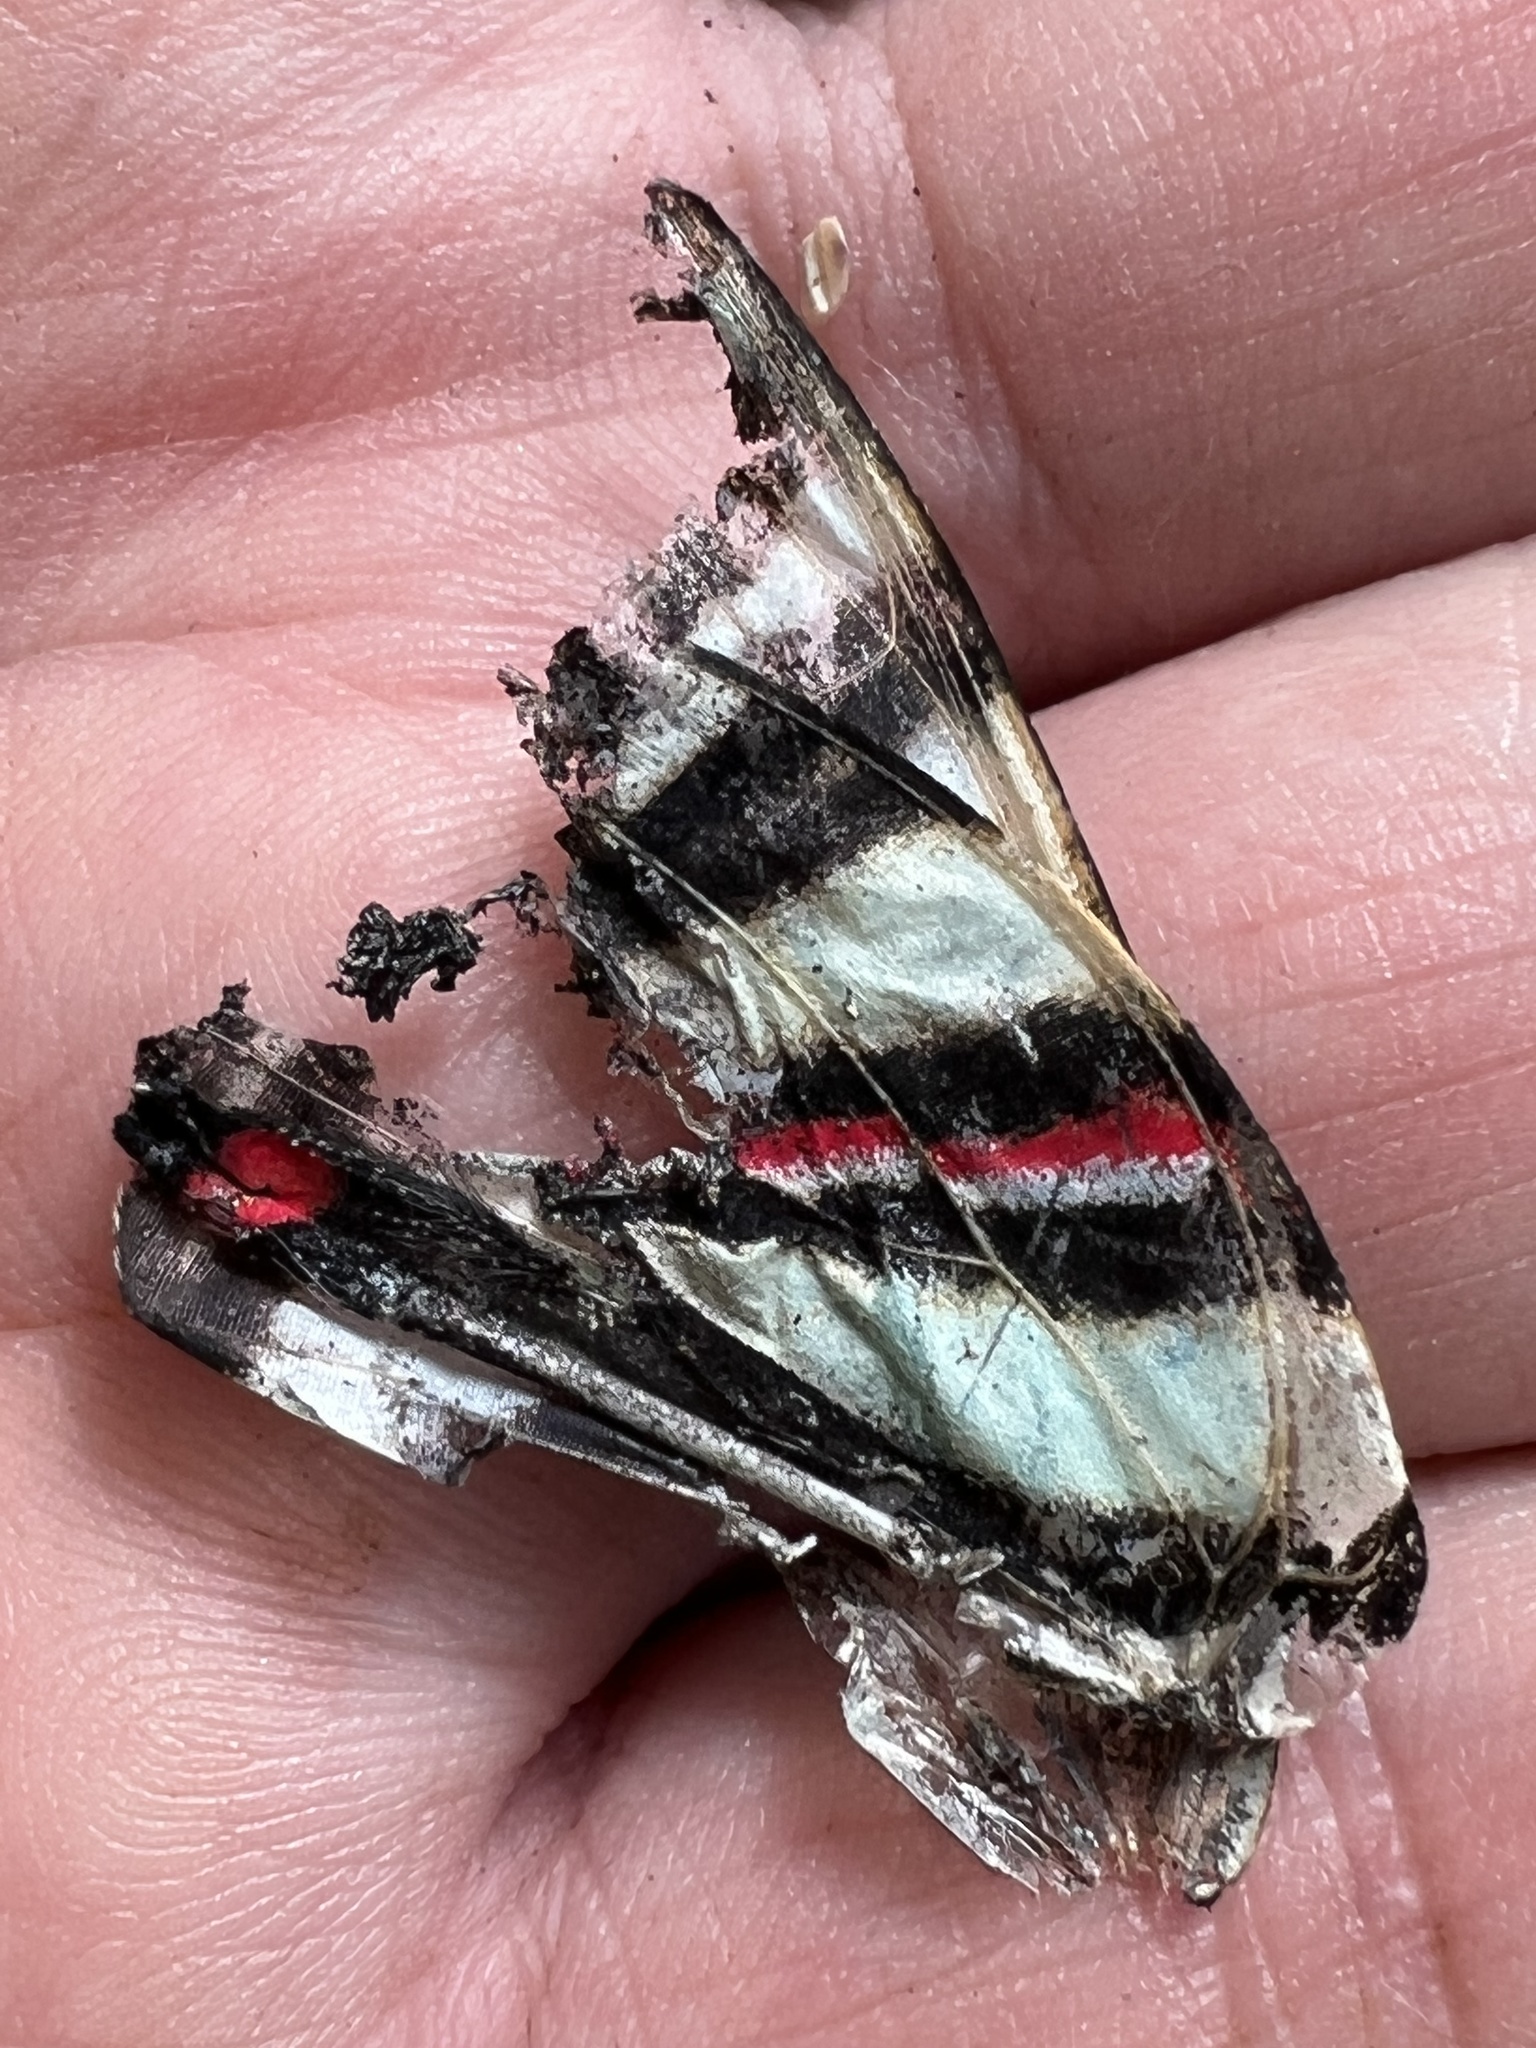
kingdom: Animalia
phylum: Arthropoda
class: Insecta
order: Lepidoptera
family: Papilionidae
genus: Protographium
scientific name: Protographium marcellus
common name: Zebra swallowtail
